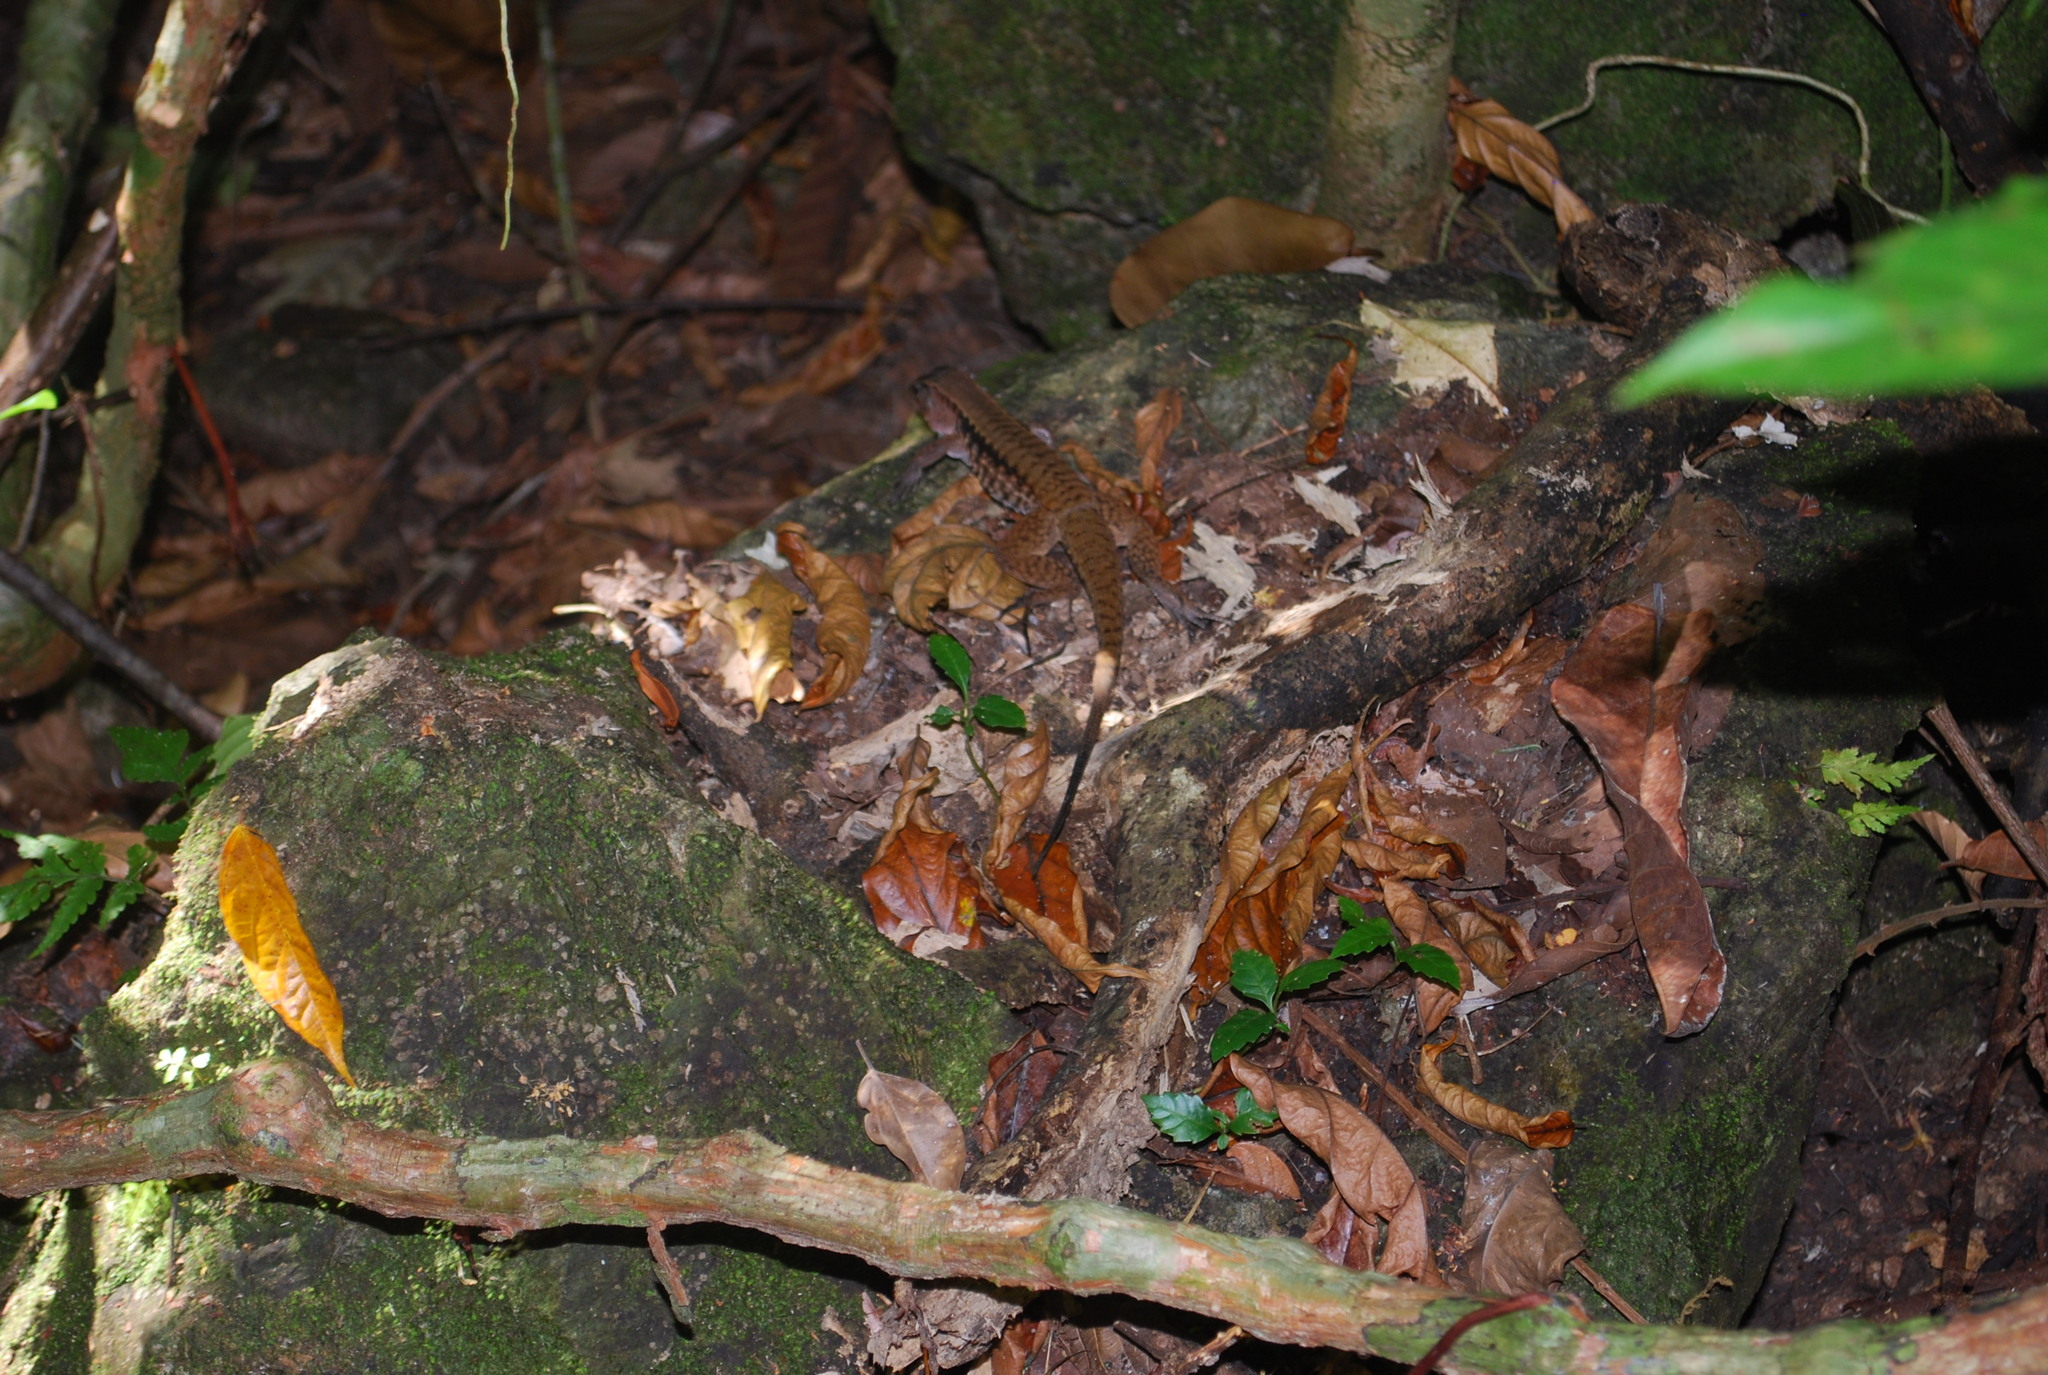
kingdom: Animalia
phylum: Chordata
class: Squamata
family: Teiidae
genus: Holcosus
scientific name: Holcosus leptophrys
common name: Delicate ameiva
